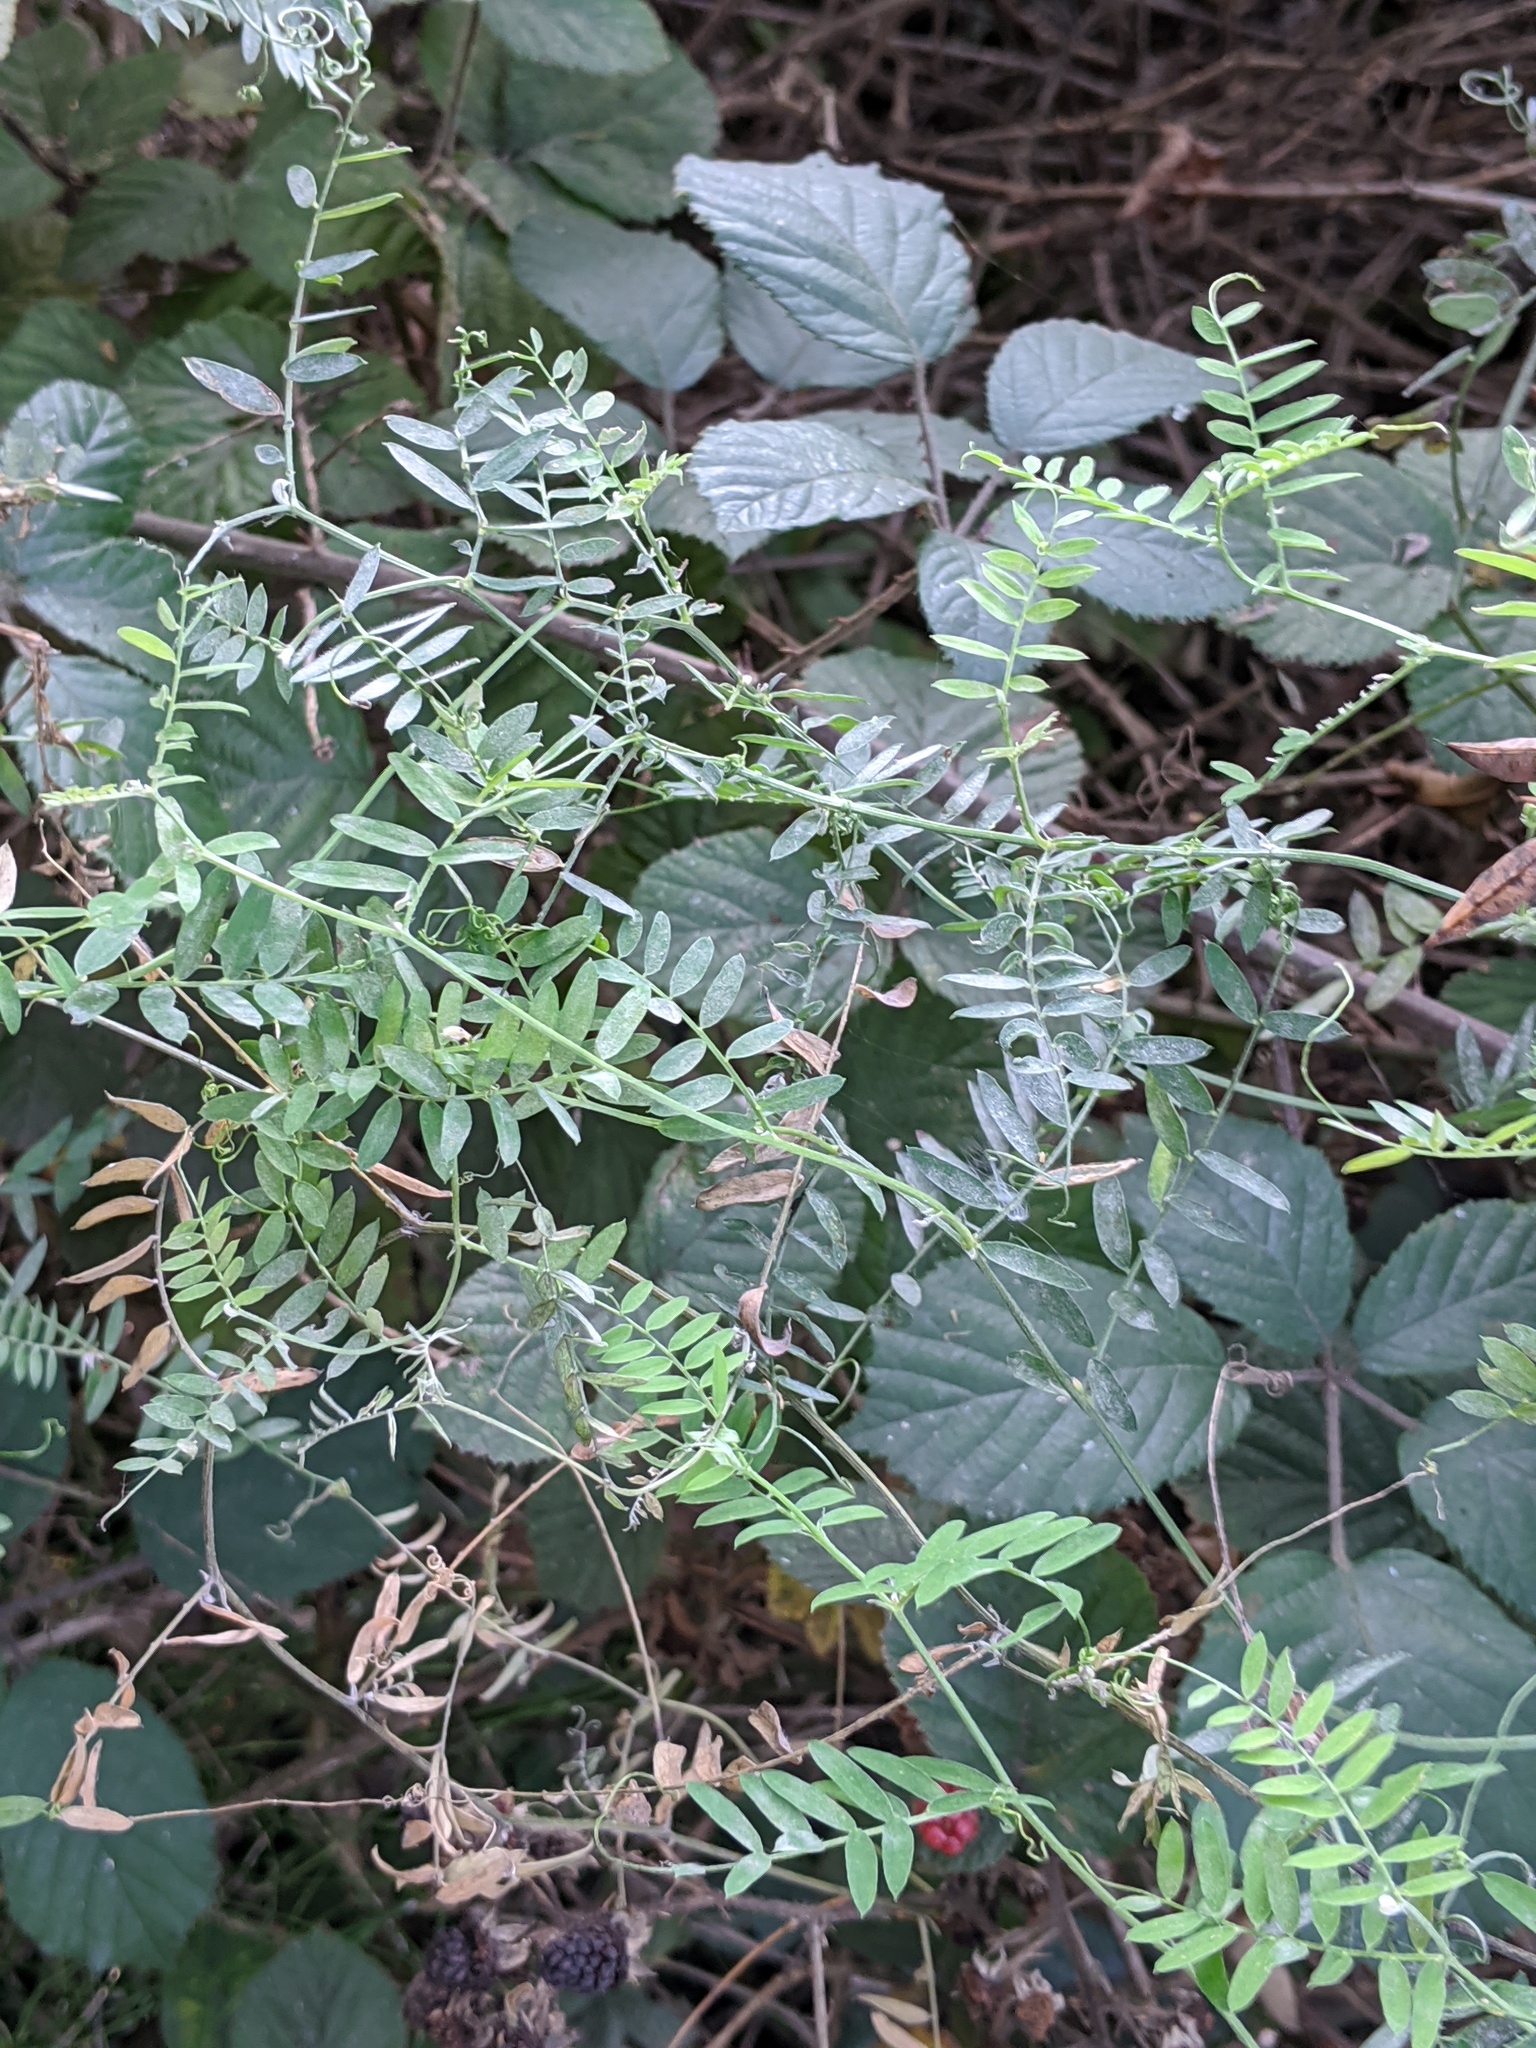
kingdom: Plantae
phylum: Tracheophyta
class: Magnoliopsida
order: Fabales
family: Fabaceae
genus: Vicia
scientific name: Vicia cracca
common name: Bird vetch
